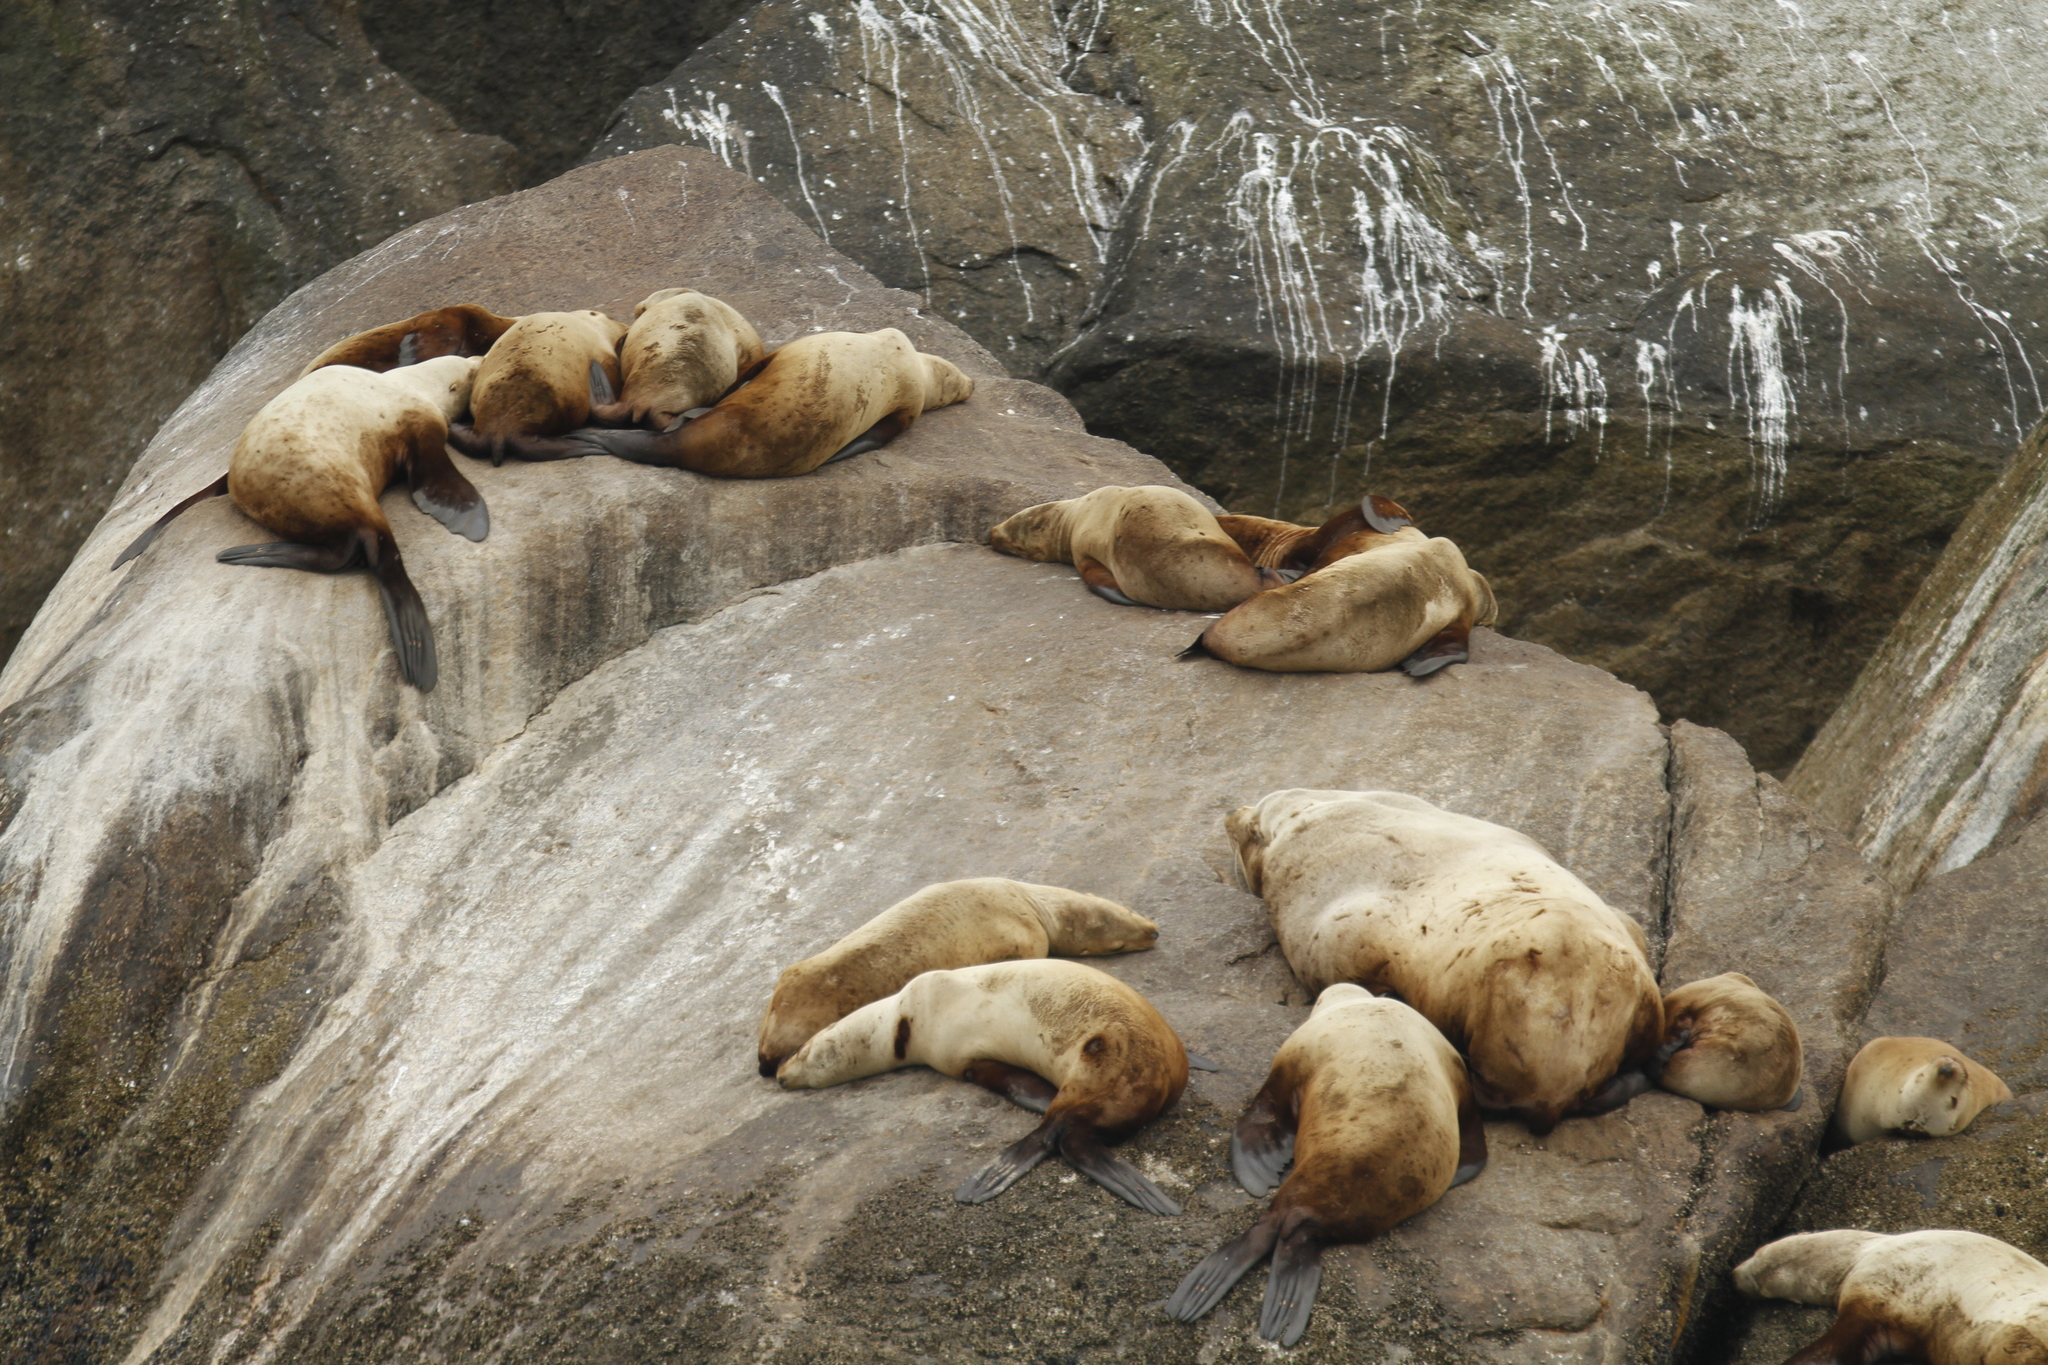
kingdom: Animalia
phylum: Chordata
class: Mammalia
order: Carnivora
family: Otariidae
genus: Eumetopias
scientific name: Eumetopias jubatus
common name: Steller sea lion
